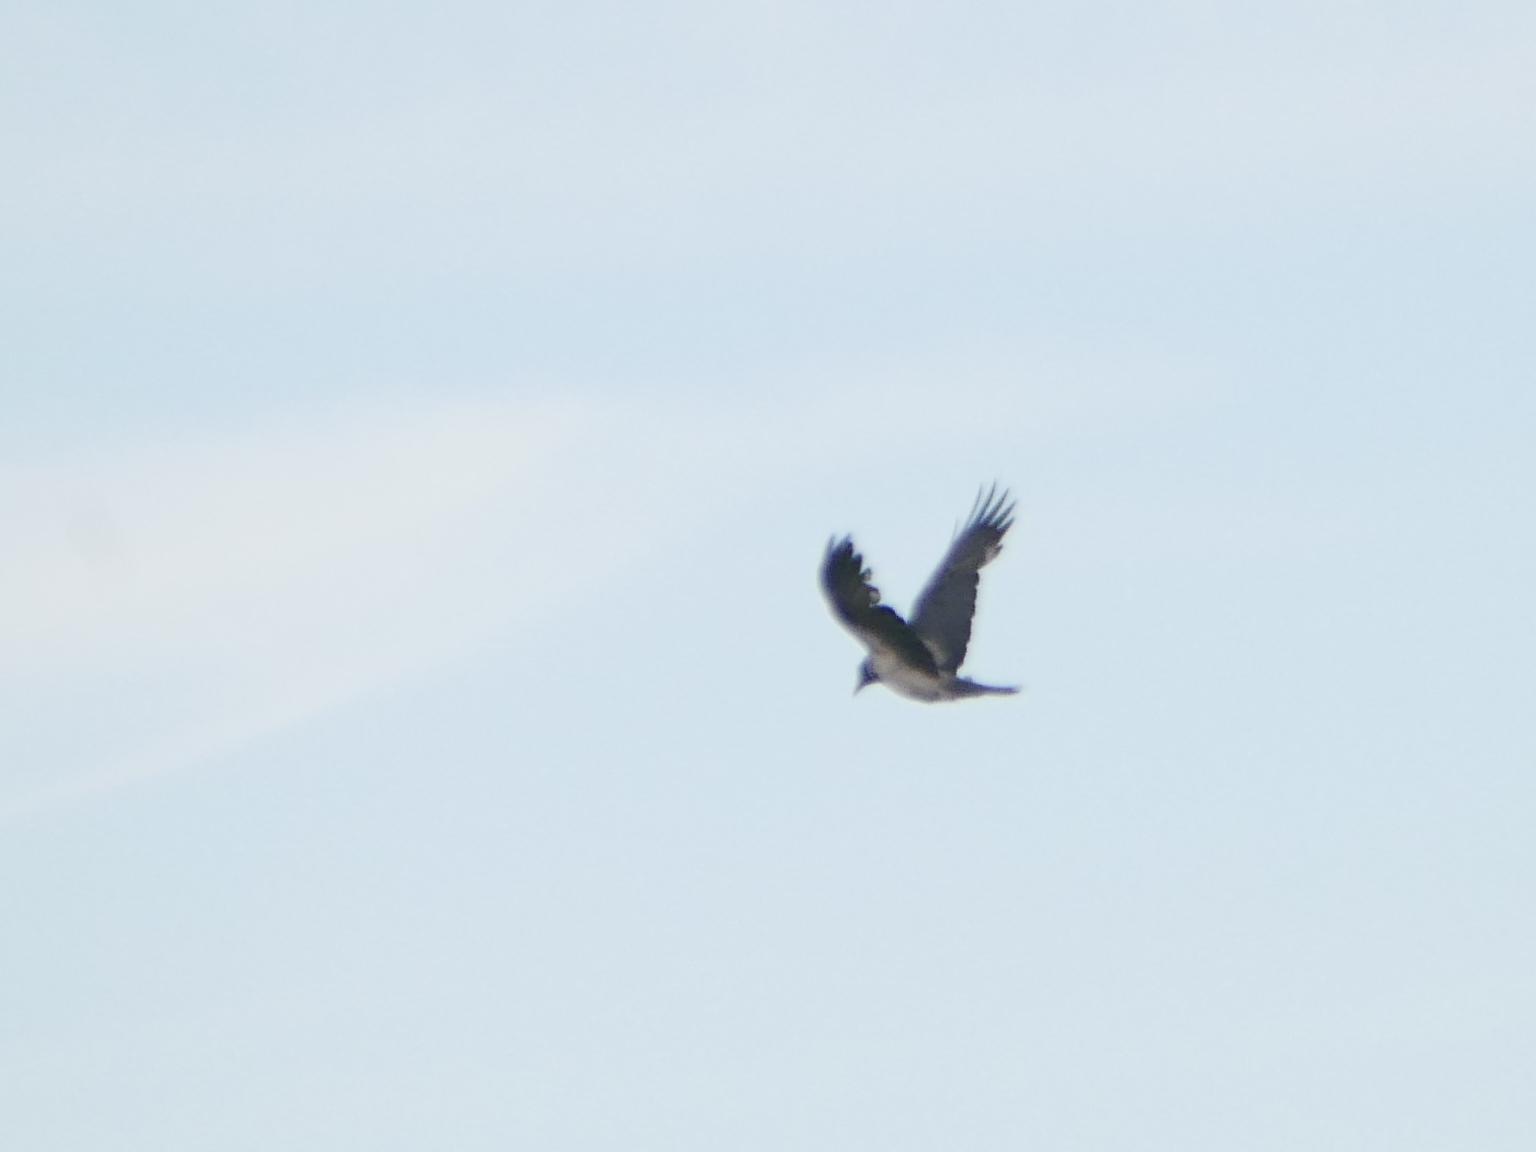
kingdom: Animalia
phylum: Chordata
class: Aves
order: Passeriformes
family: Corvidae
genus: Corvus
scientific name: Corvus cornix
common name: Hooded crow
